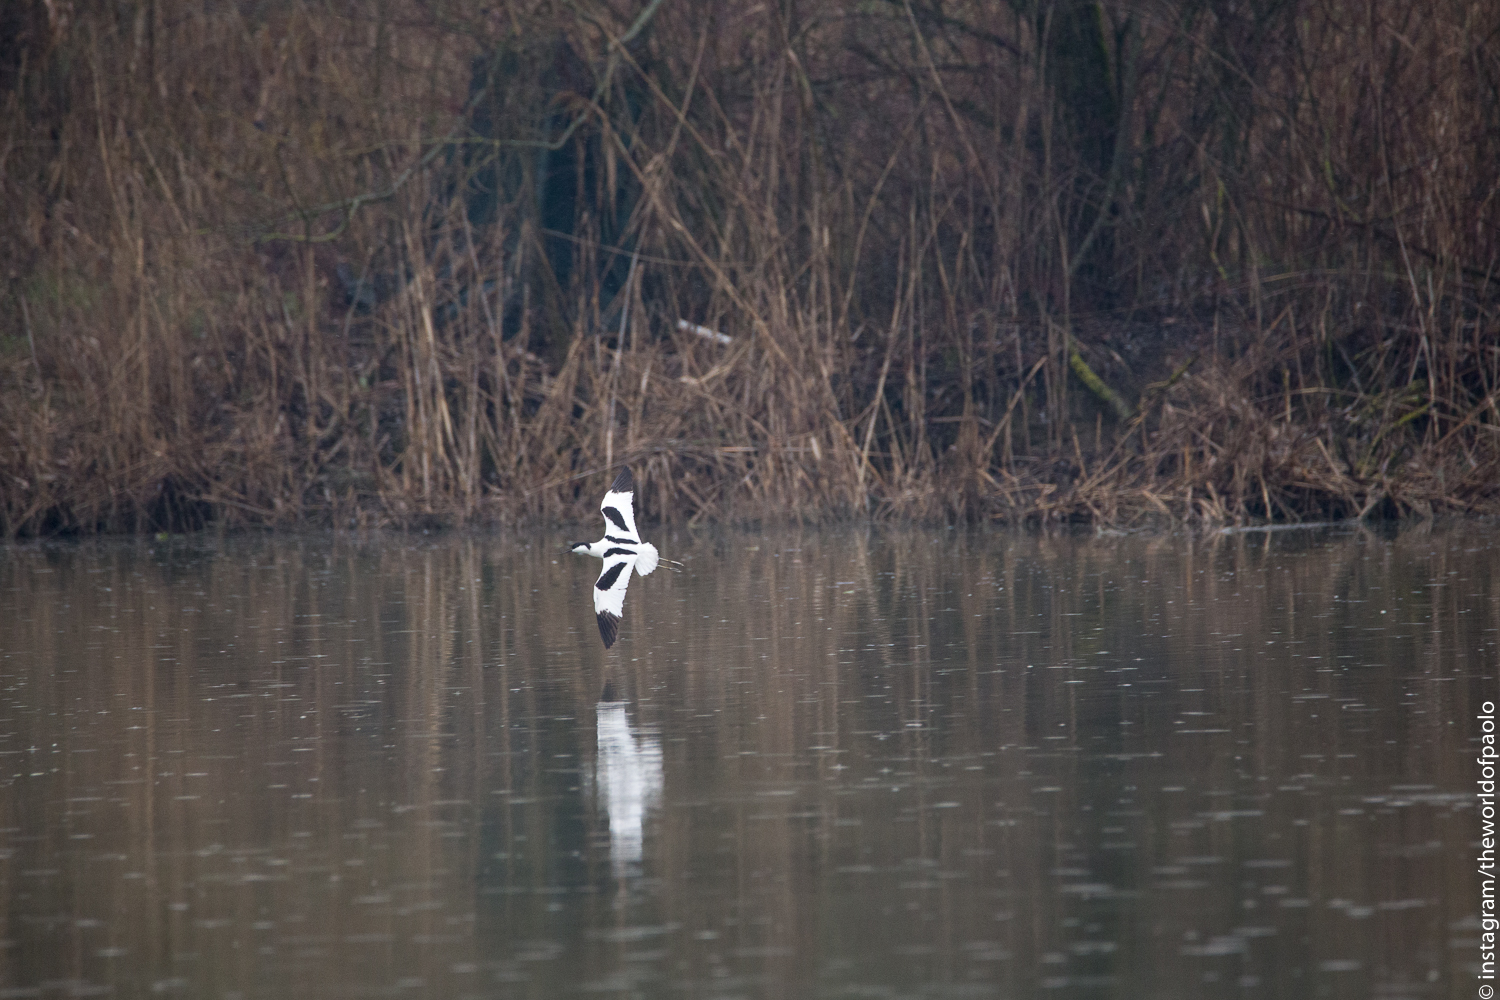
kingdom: Animalia
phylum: Chordata
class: Aves
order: Charadriiformes
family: Recurvirostridae
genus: Recurvirostra
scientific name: Recurvirostra avosetta
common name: Pied avocet
